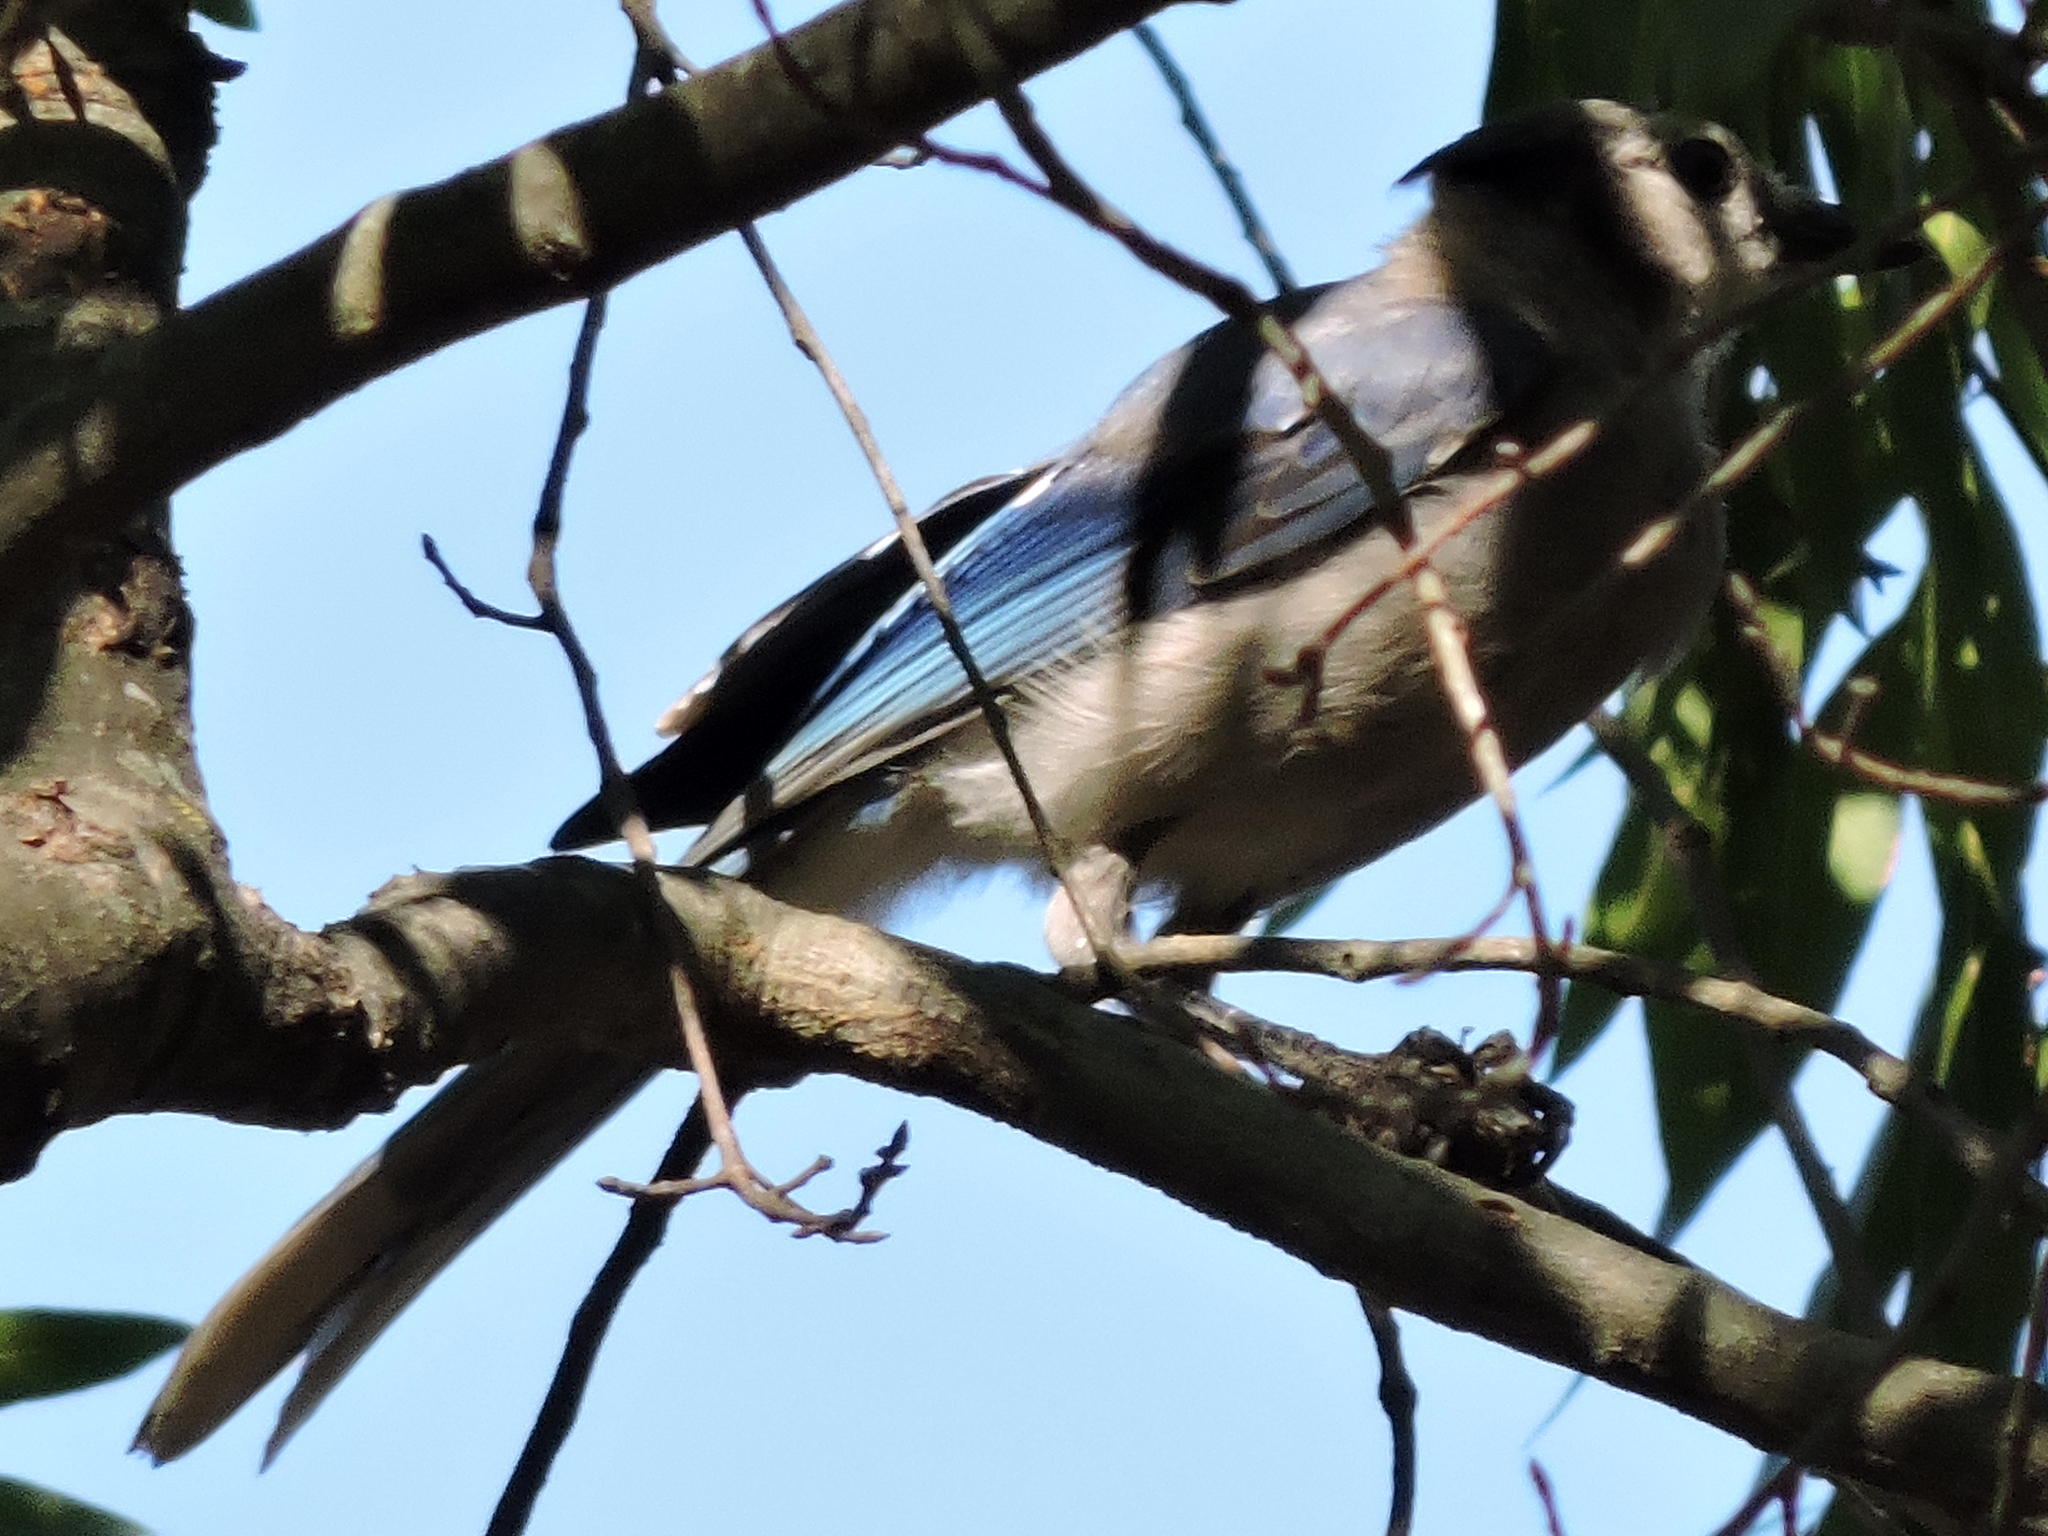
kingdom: Animalia
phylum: Chordata
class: Aves
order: Passeriformes
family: Corvidae
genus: Cyanocitta
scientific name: Cyanocitta cristata
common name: Blue jay
